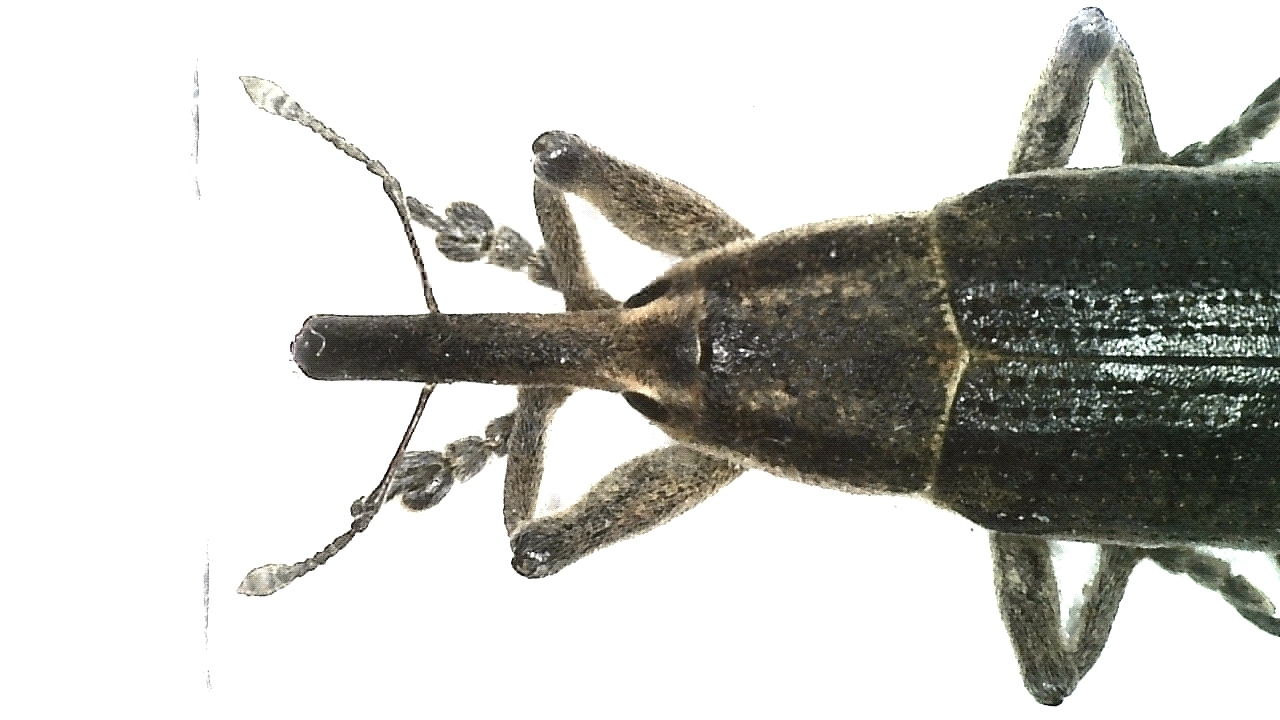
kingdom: Animalia
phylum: Arthropoda
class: Insecta
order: Coleoptera
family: Curculionidae
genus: Lixus
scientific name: Lixus iridis
